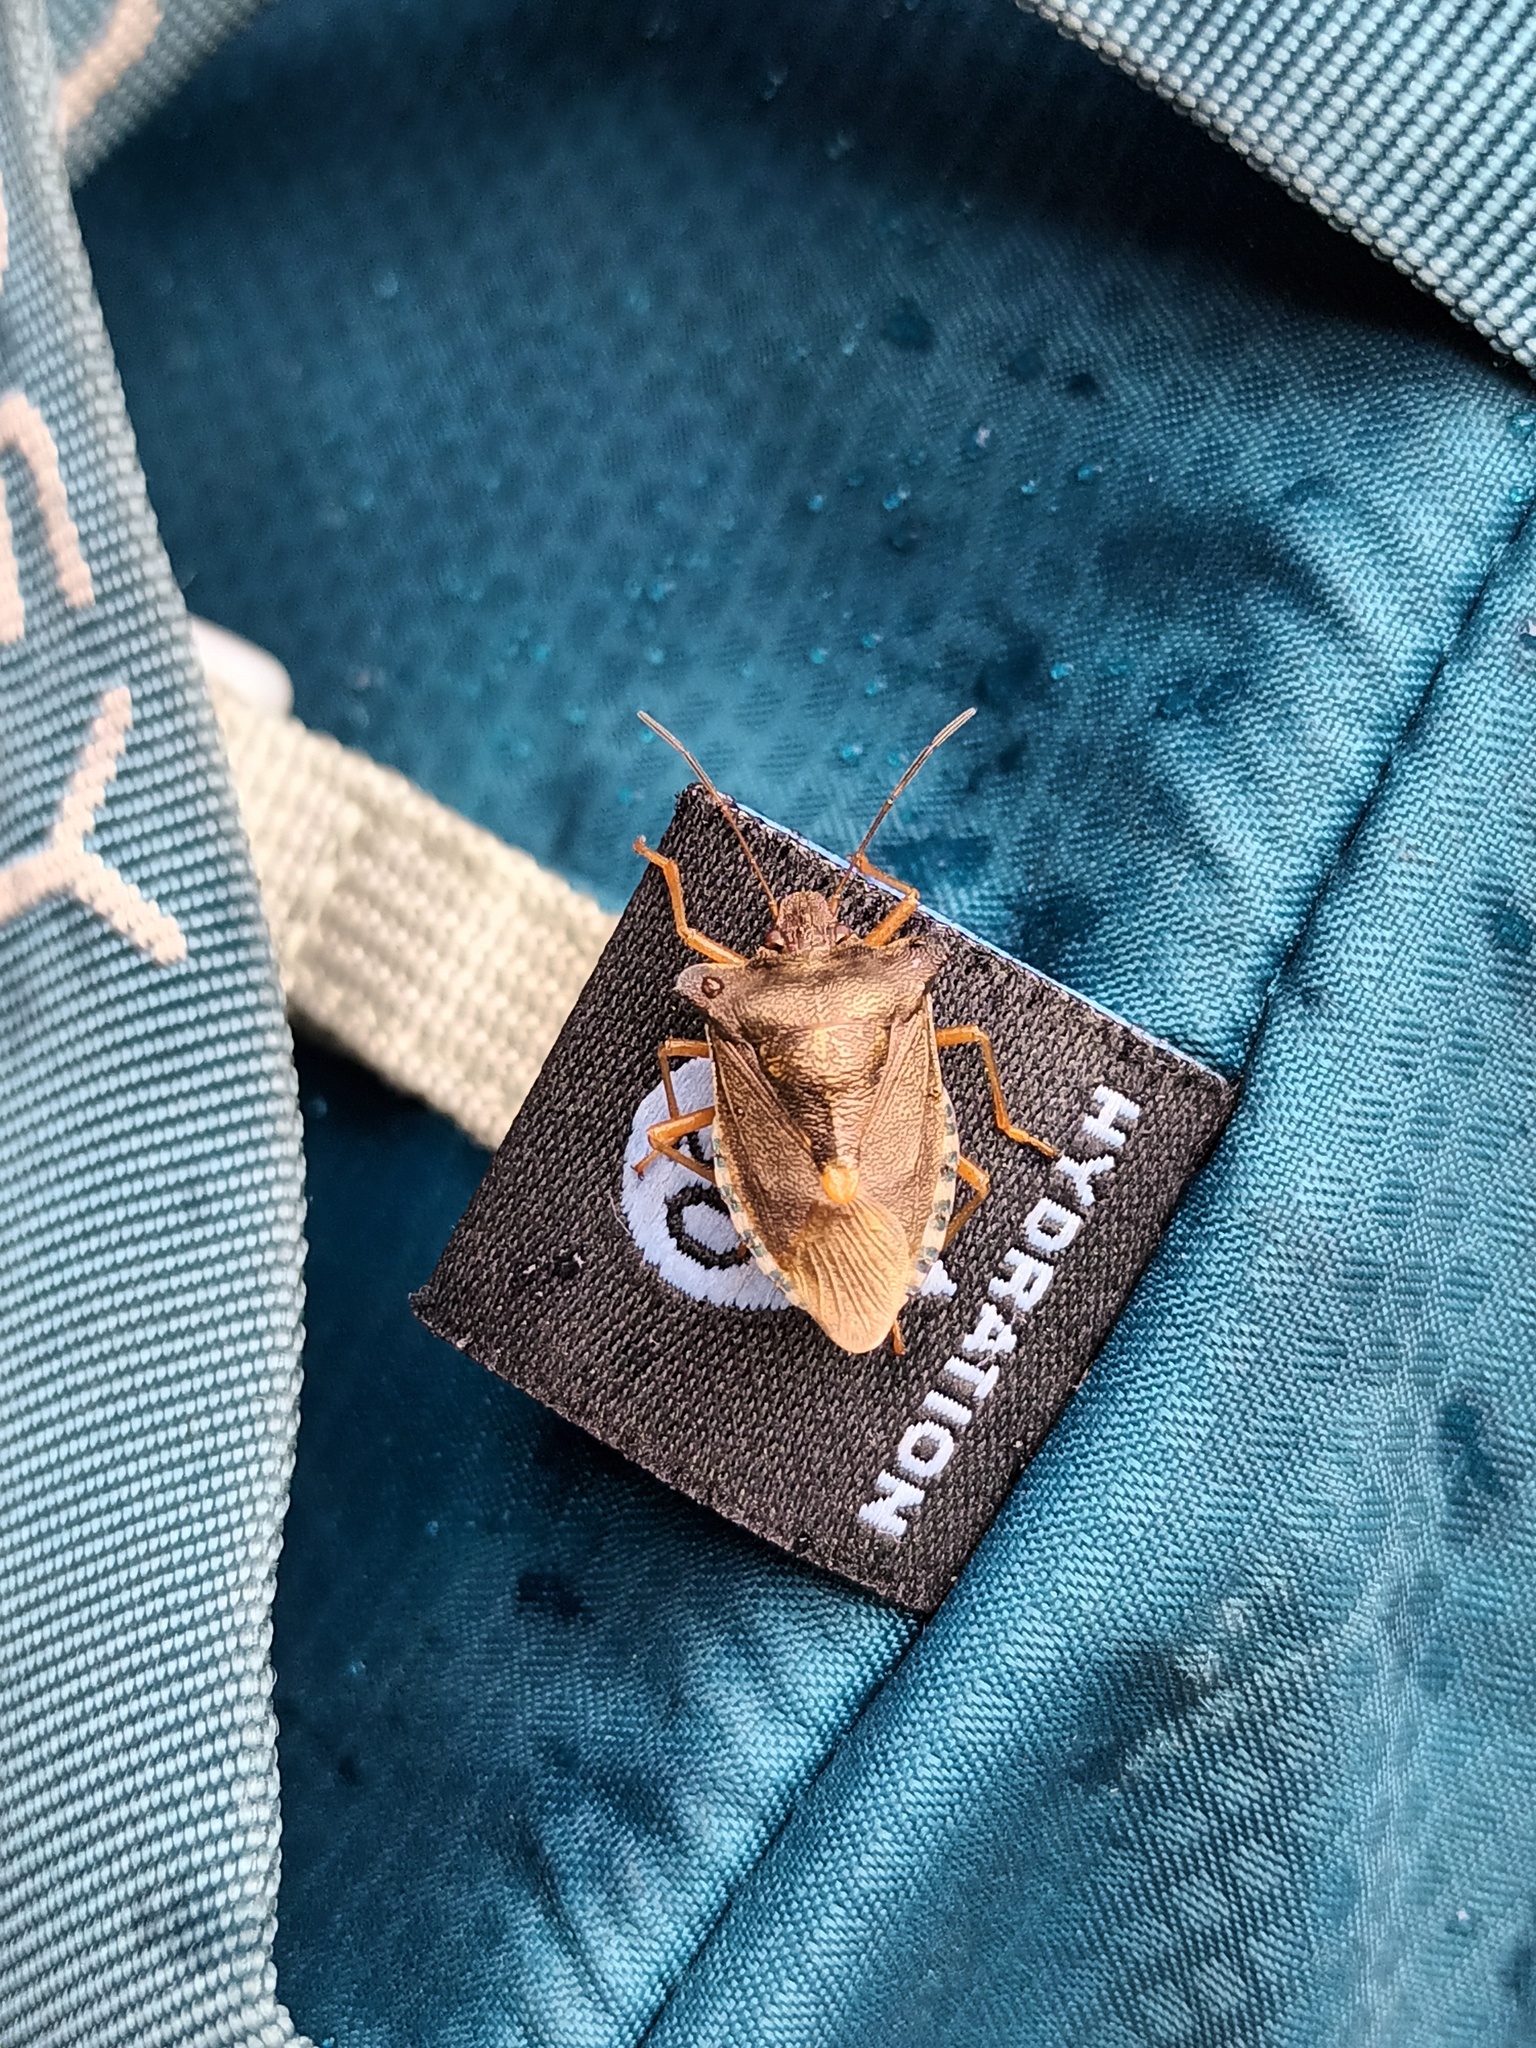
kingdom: Animalia
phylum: Arthropoda
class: Insecta
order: Hemiptera
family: Pentatomidae
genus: Pentatoma
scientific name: Pentatoma rufipes
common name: Forest bug
